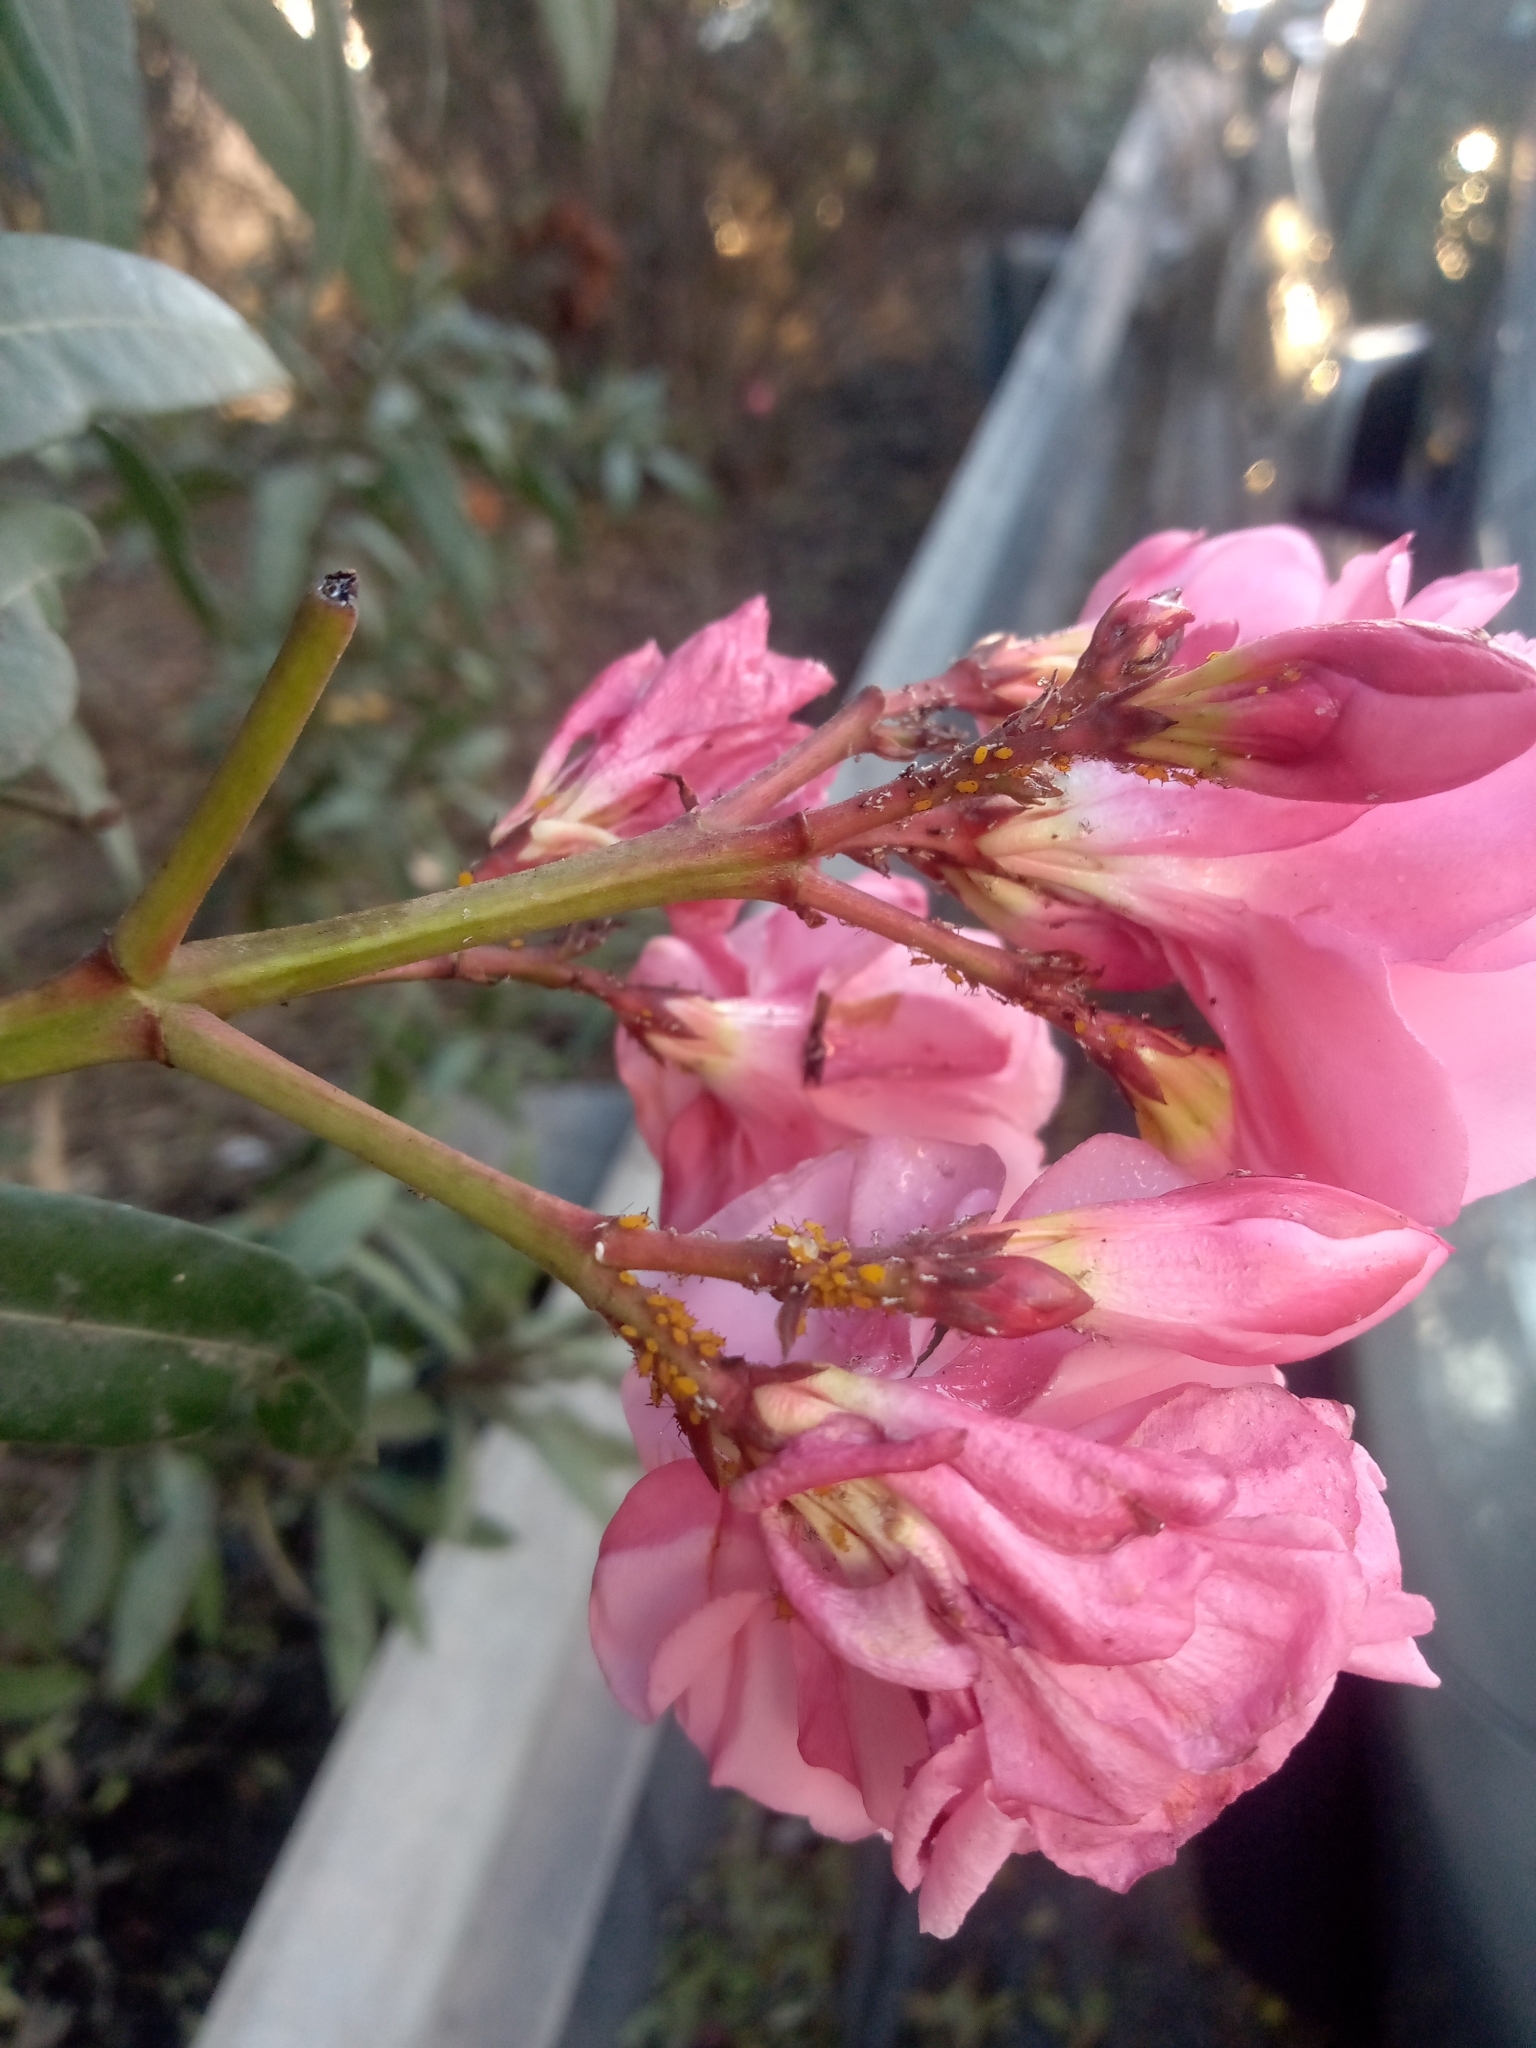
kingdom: Animalia
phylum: Arthropoda
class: Insecta
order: Hemiptera
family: Aphididae
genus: Aphis
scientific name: Aphis nerii
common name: Oleander aphid
